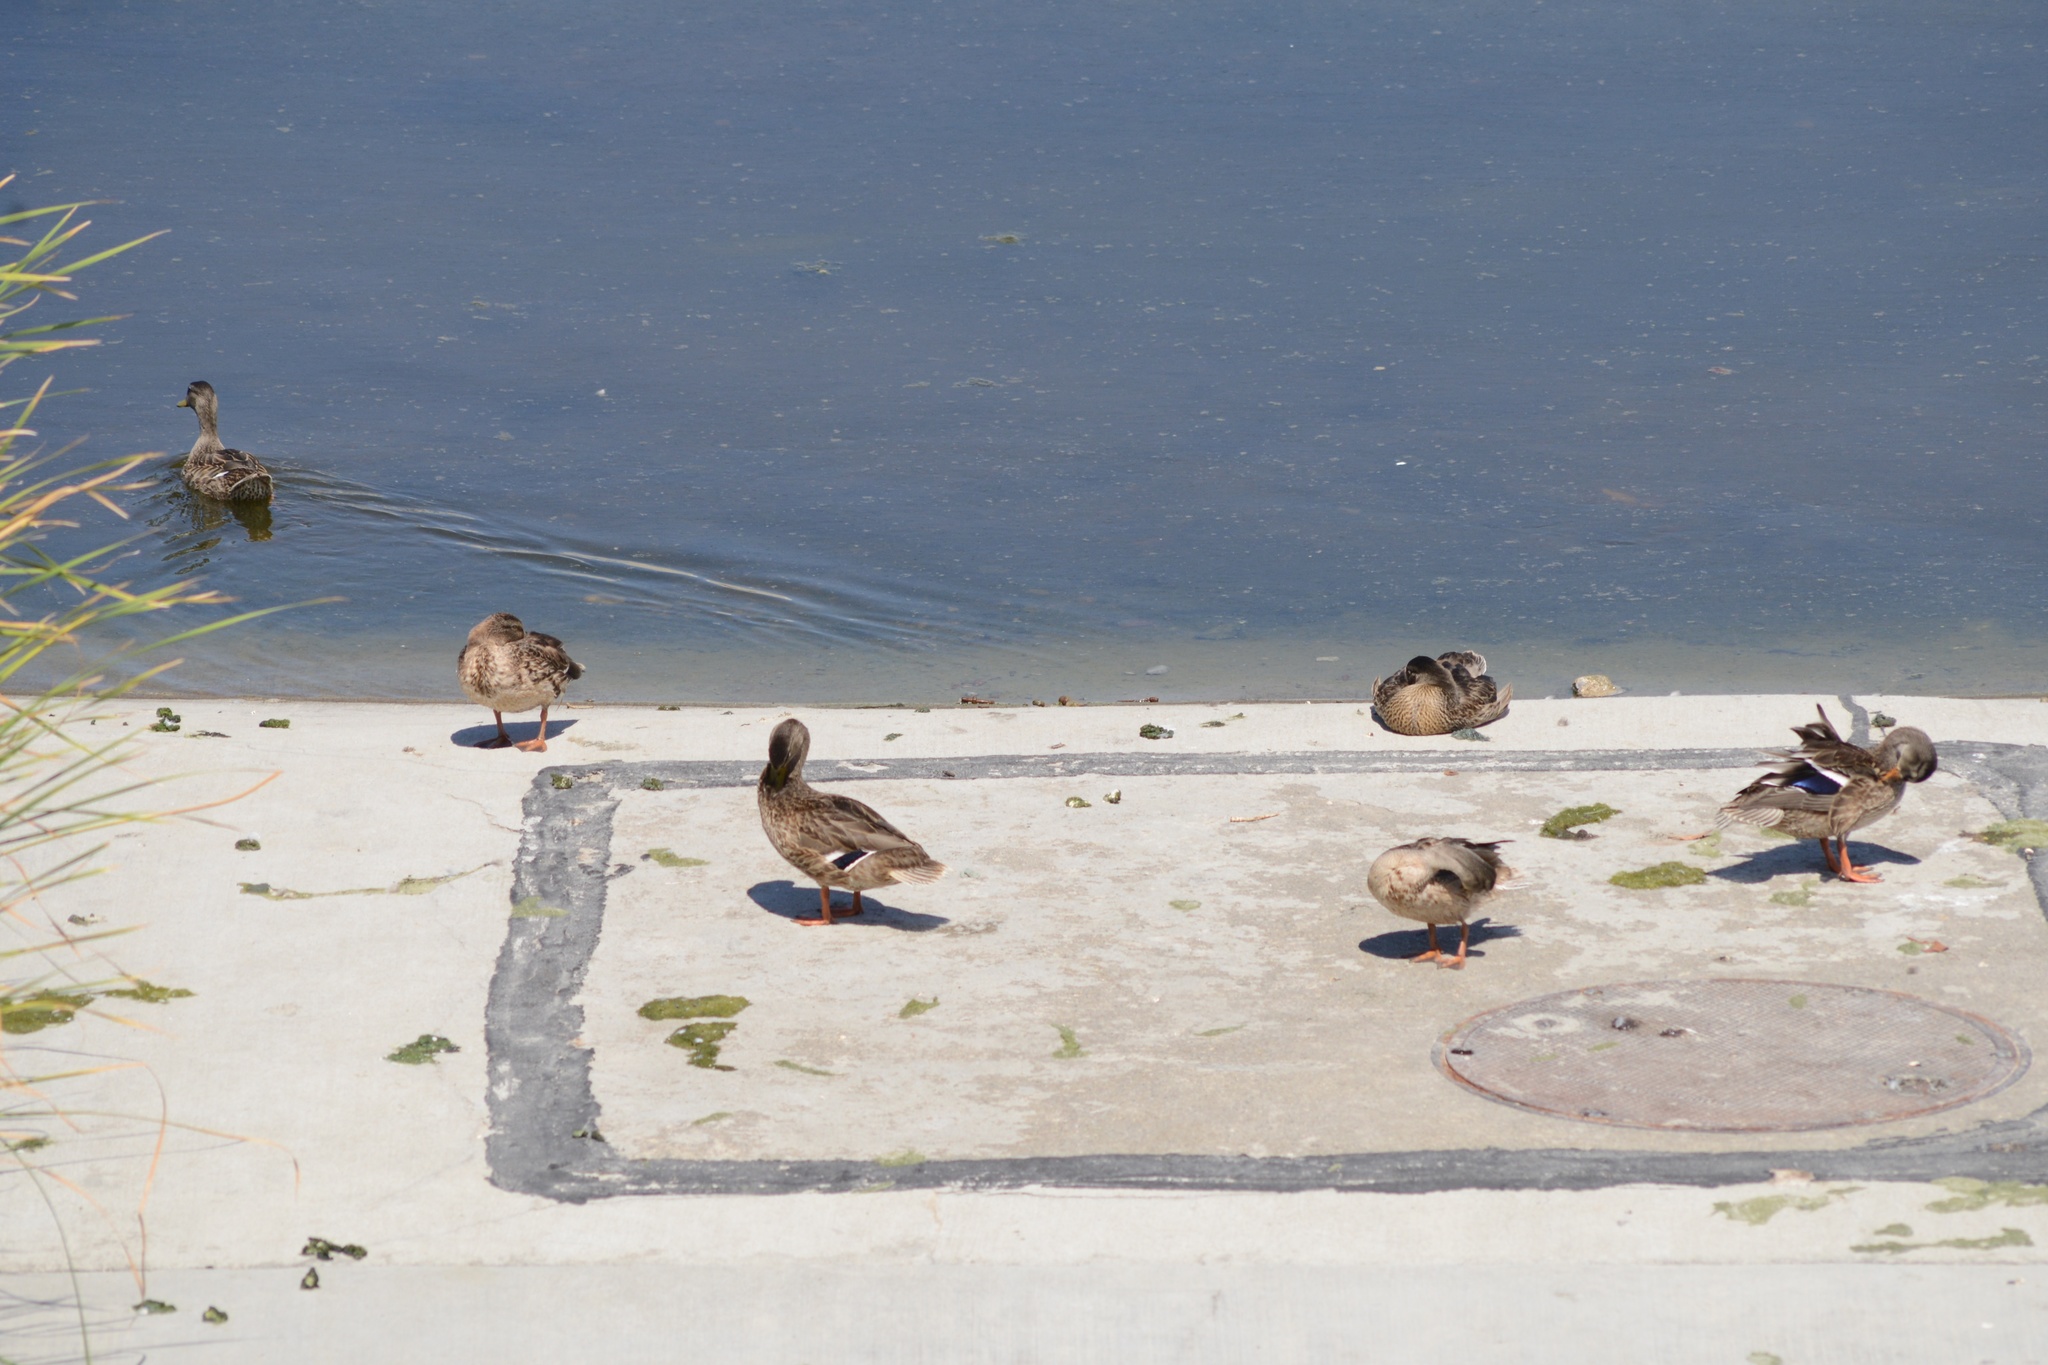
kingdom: Animalia
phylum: Chordata
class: Aves
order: Anseriformes
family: Anatidae
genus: Anas
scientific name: Anas platyrhynchos
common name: Mallard
